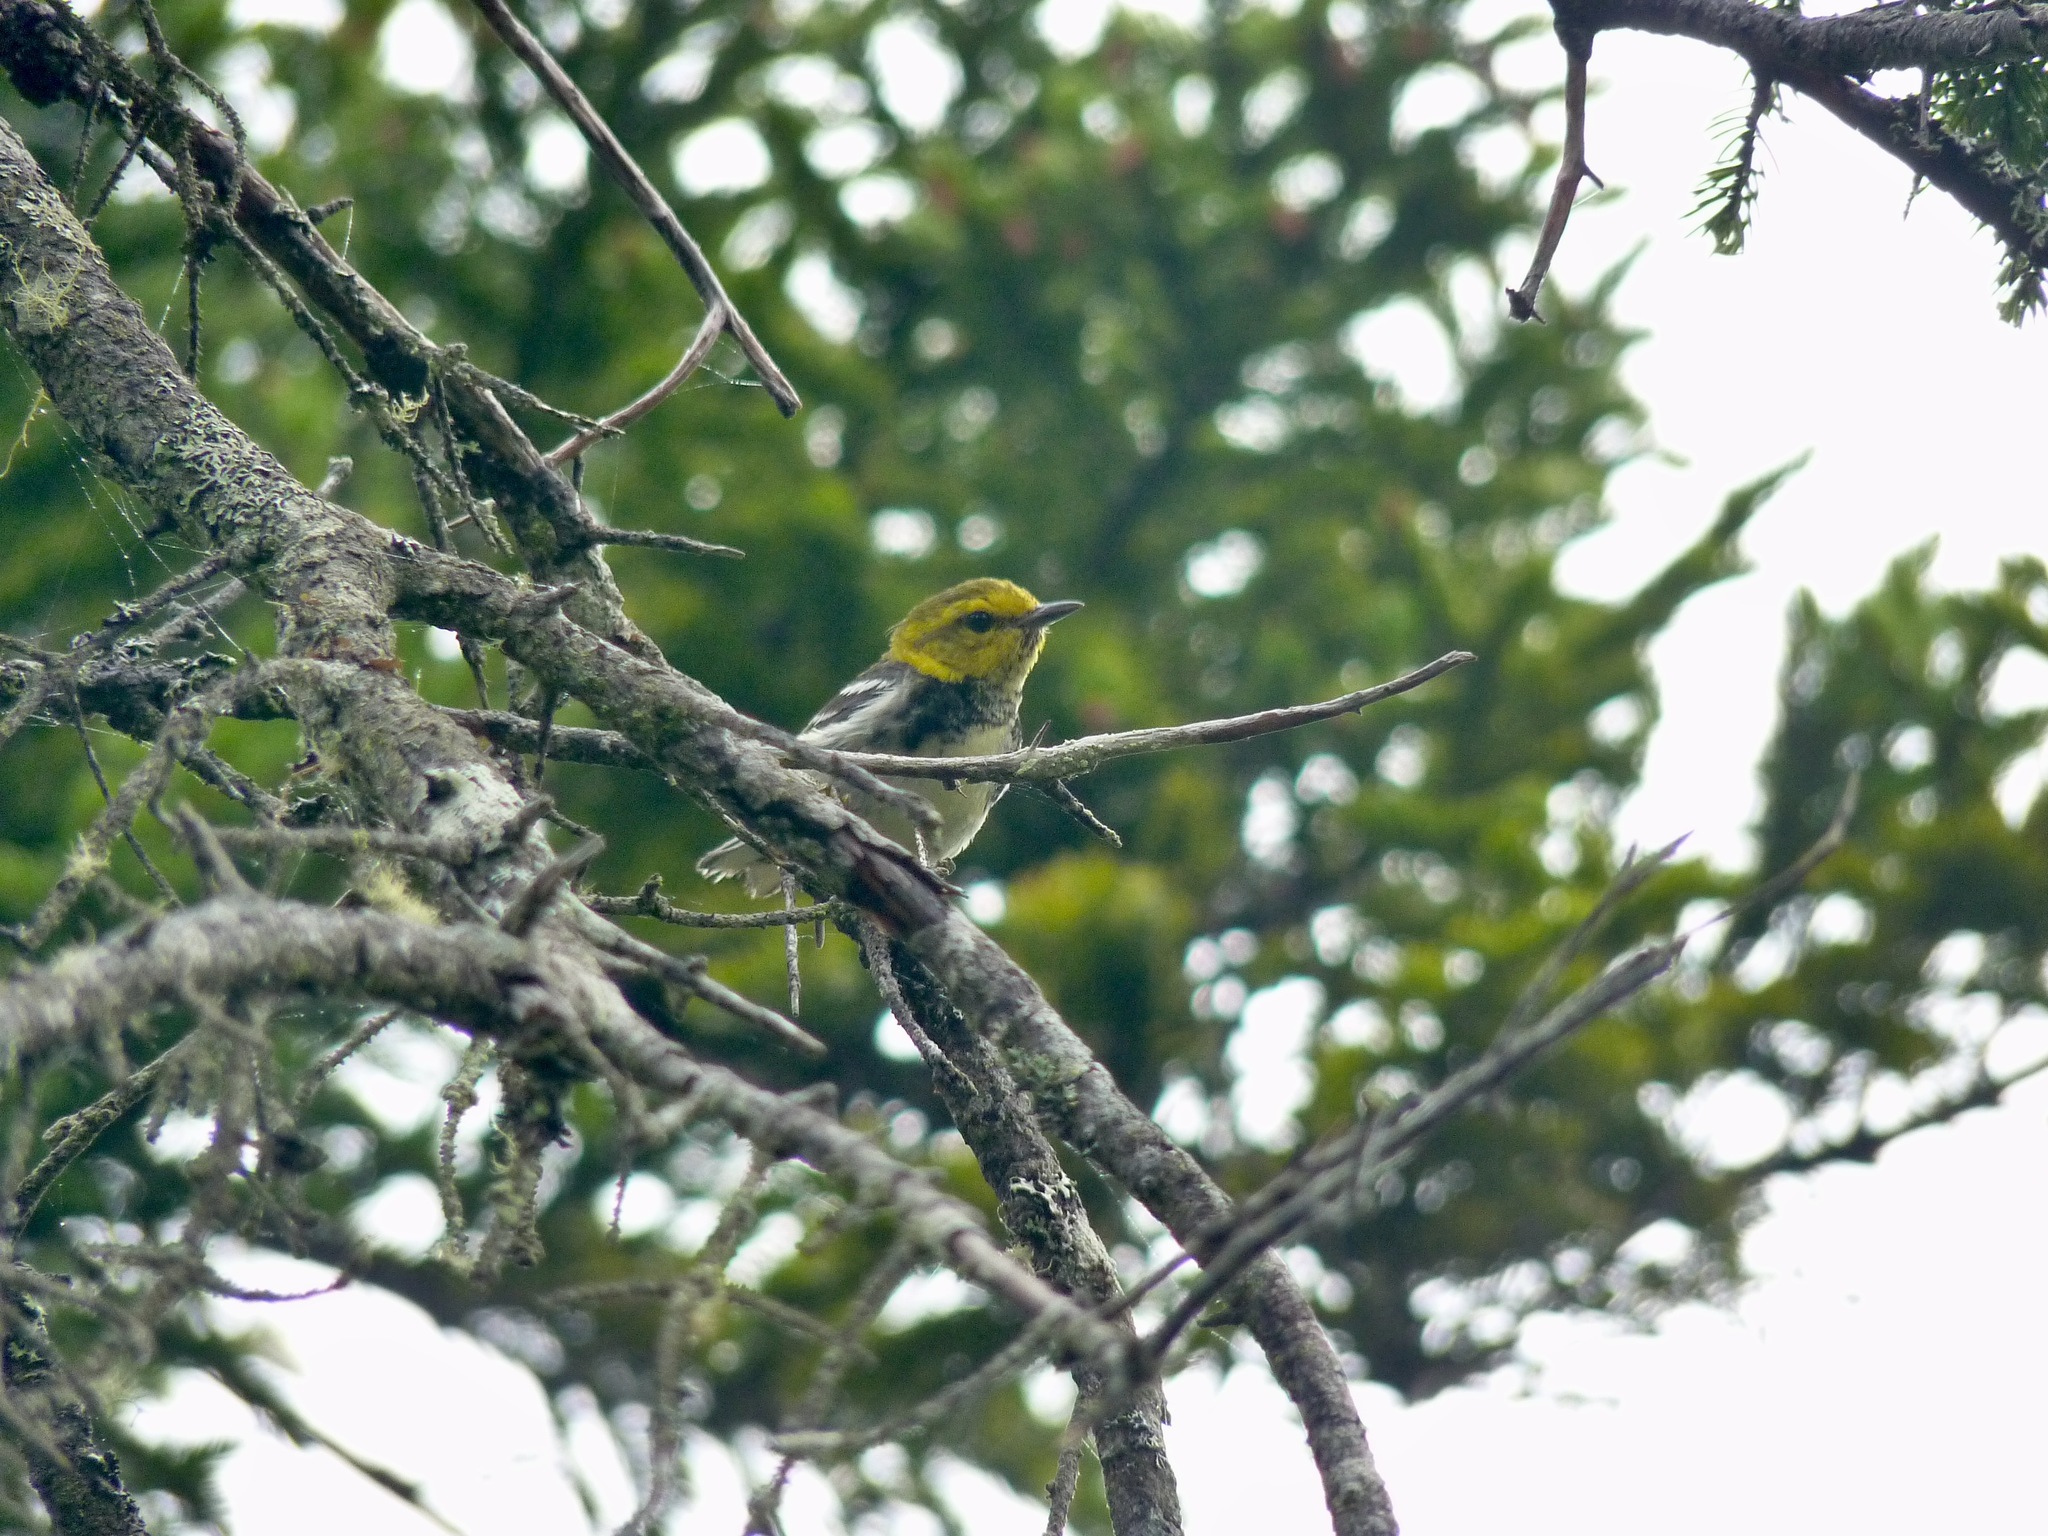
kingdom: Animalia
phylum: Chordata
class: Aves
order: Passeriformes
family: Parulidae
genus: Setophaga
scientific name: Setophaga virens
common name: Black-throated green warbler
